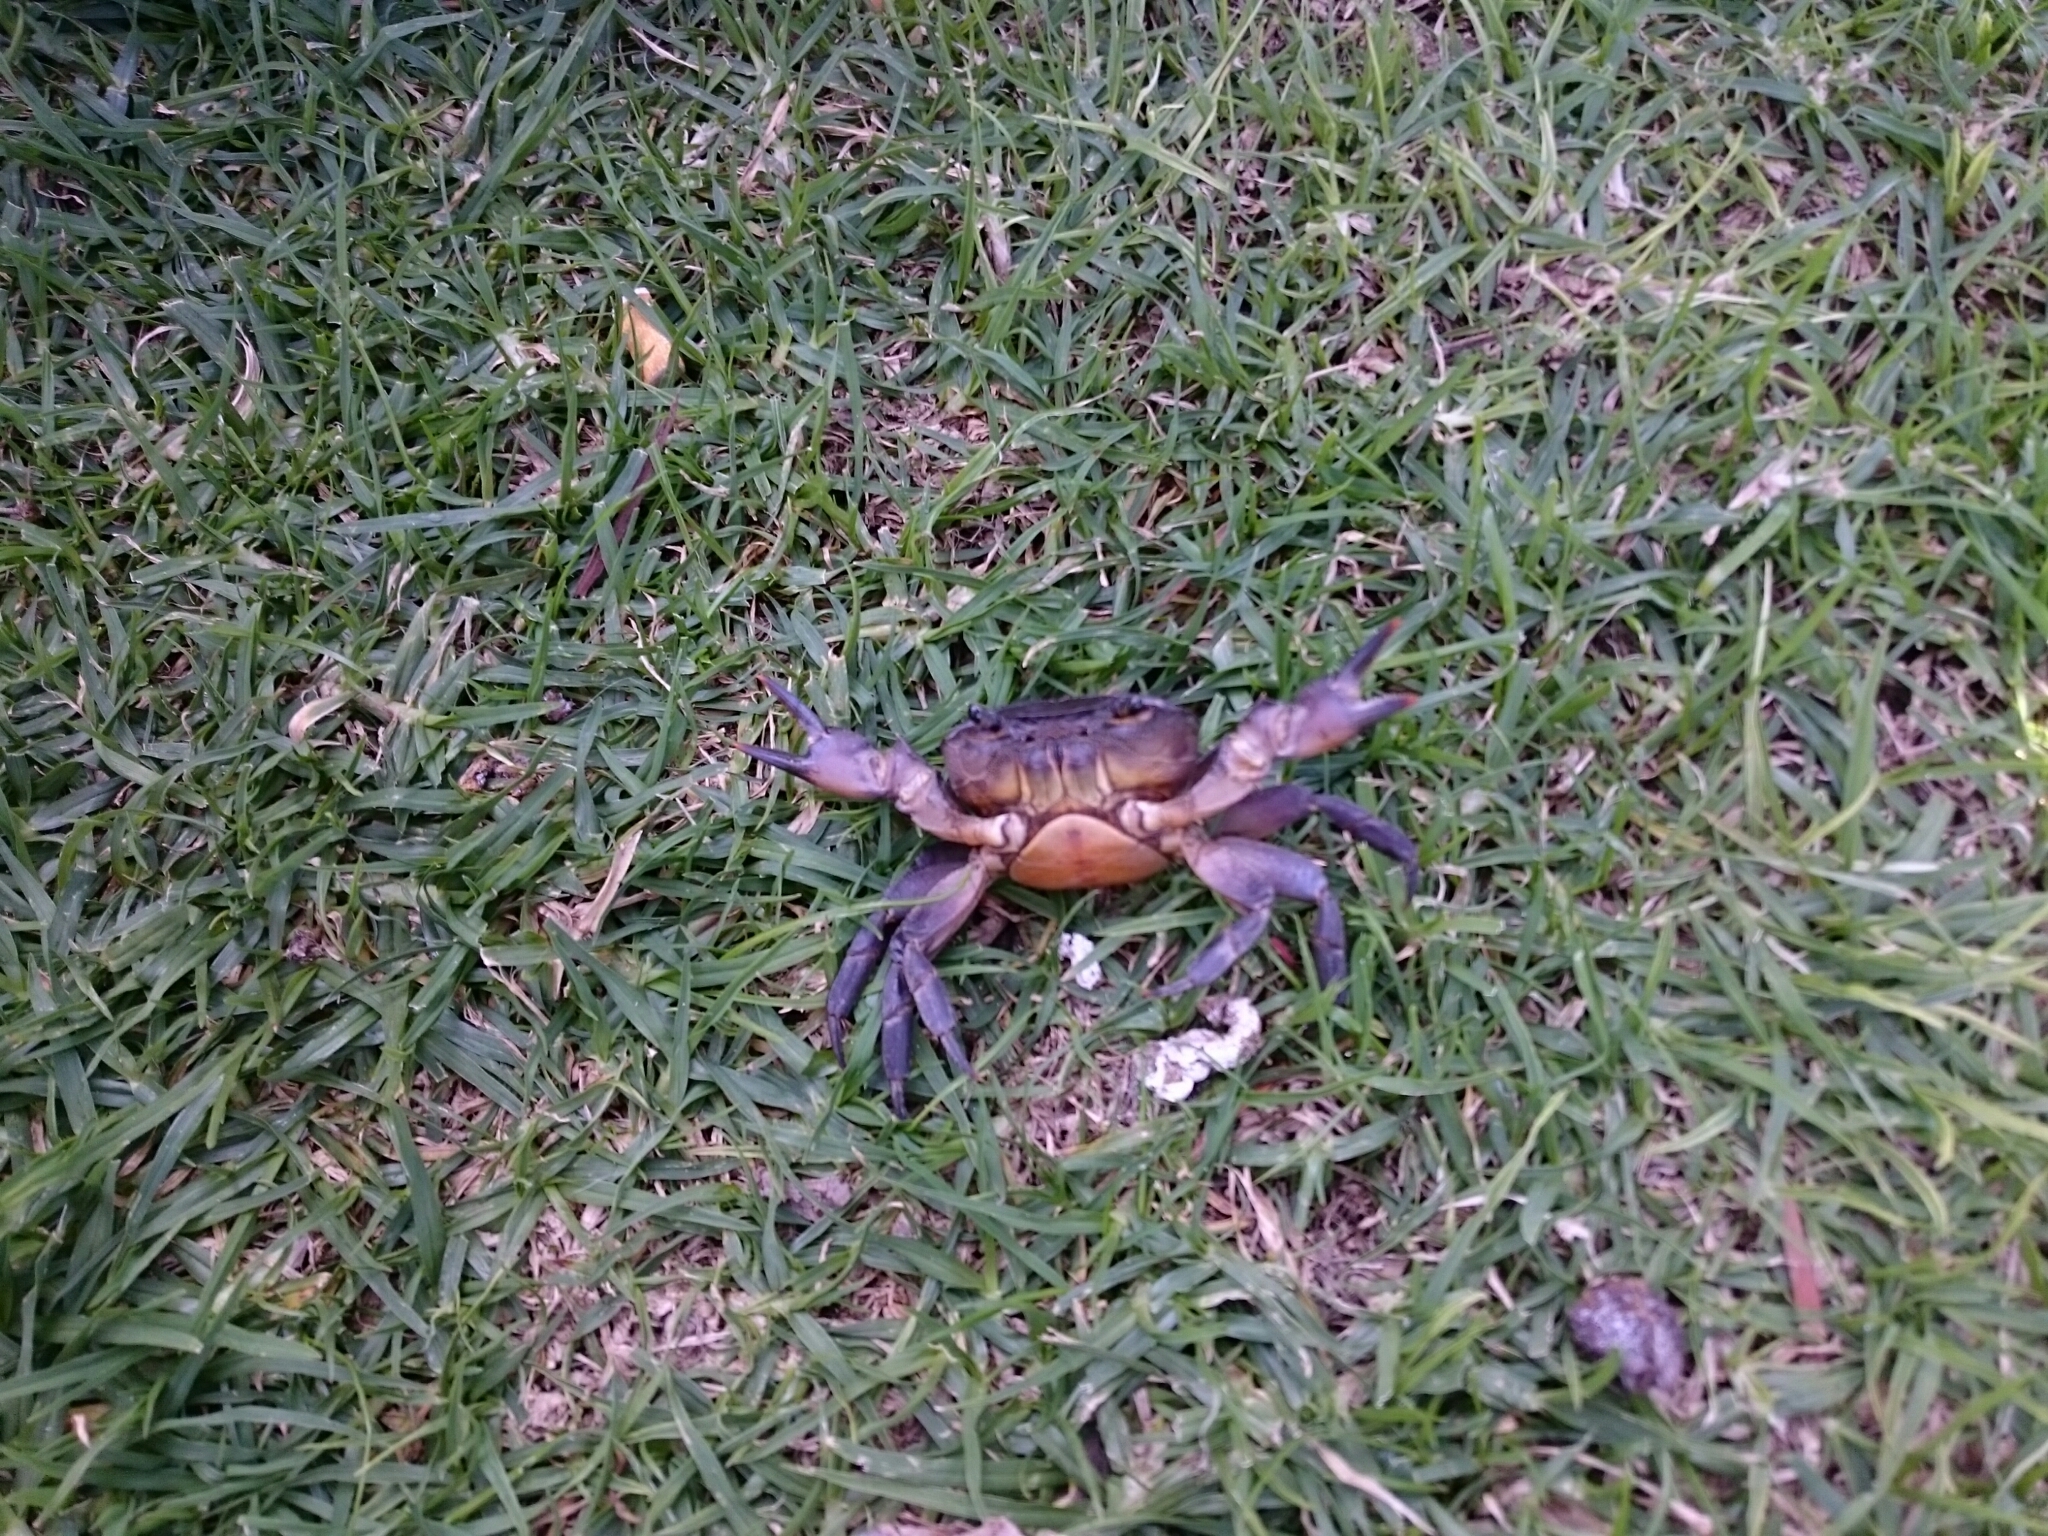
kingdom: Animalia
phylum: Arthropoda
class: Malacostraca
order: Decapoda
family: Potamonautidae
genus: Potamonautes
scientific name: Potamonautes perlatus
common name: Cape river crab
